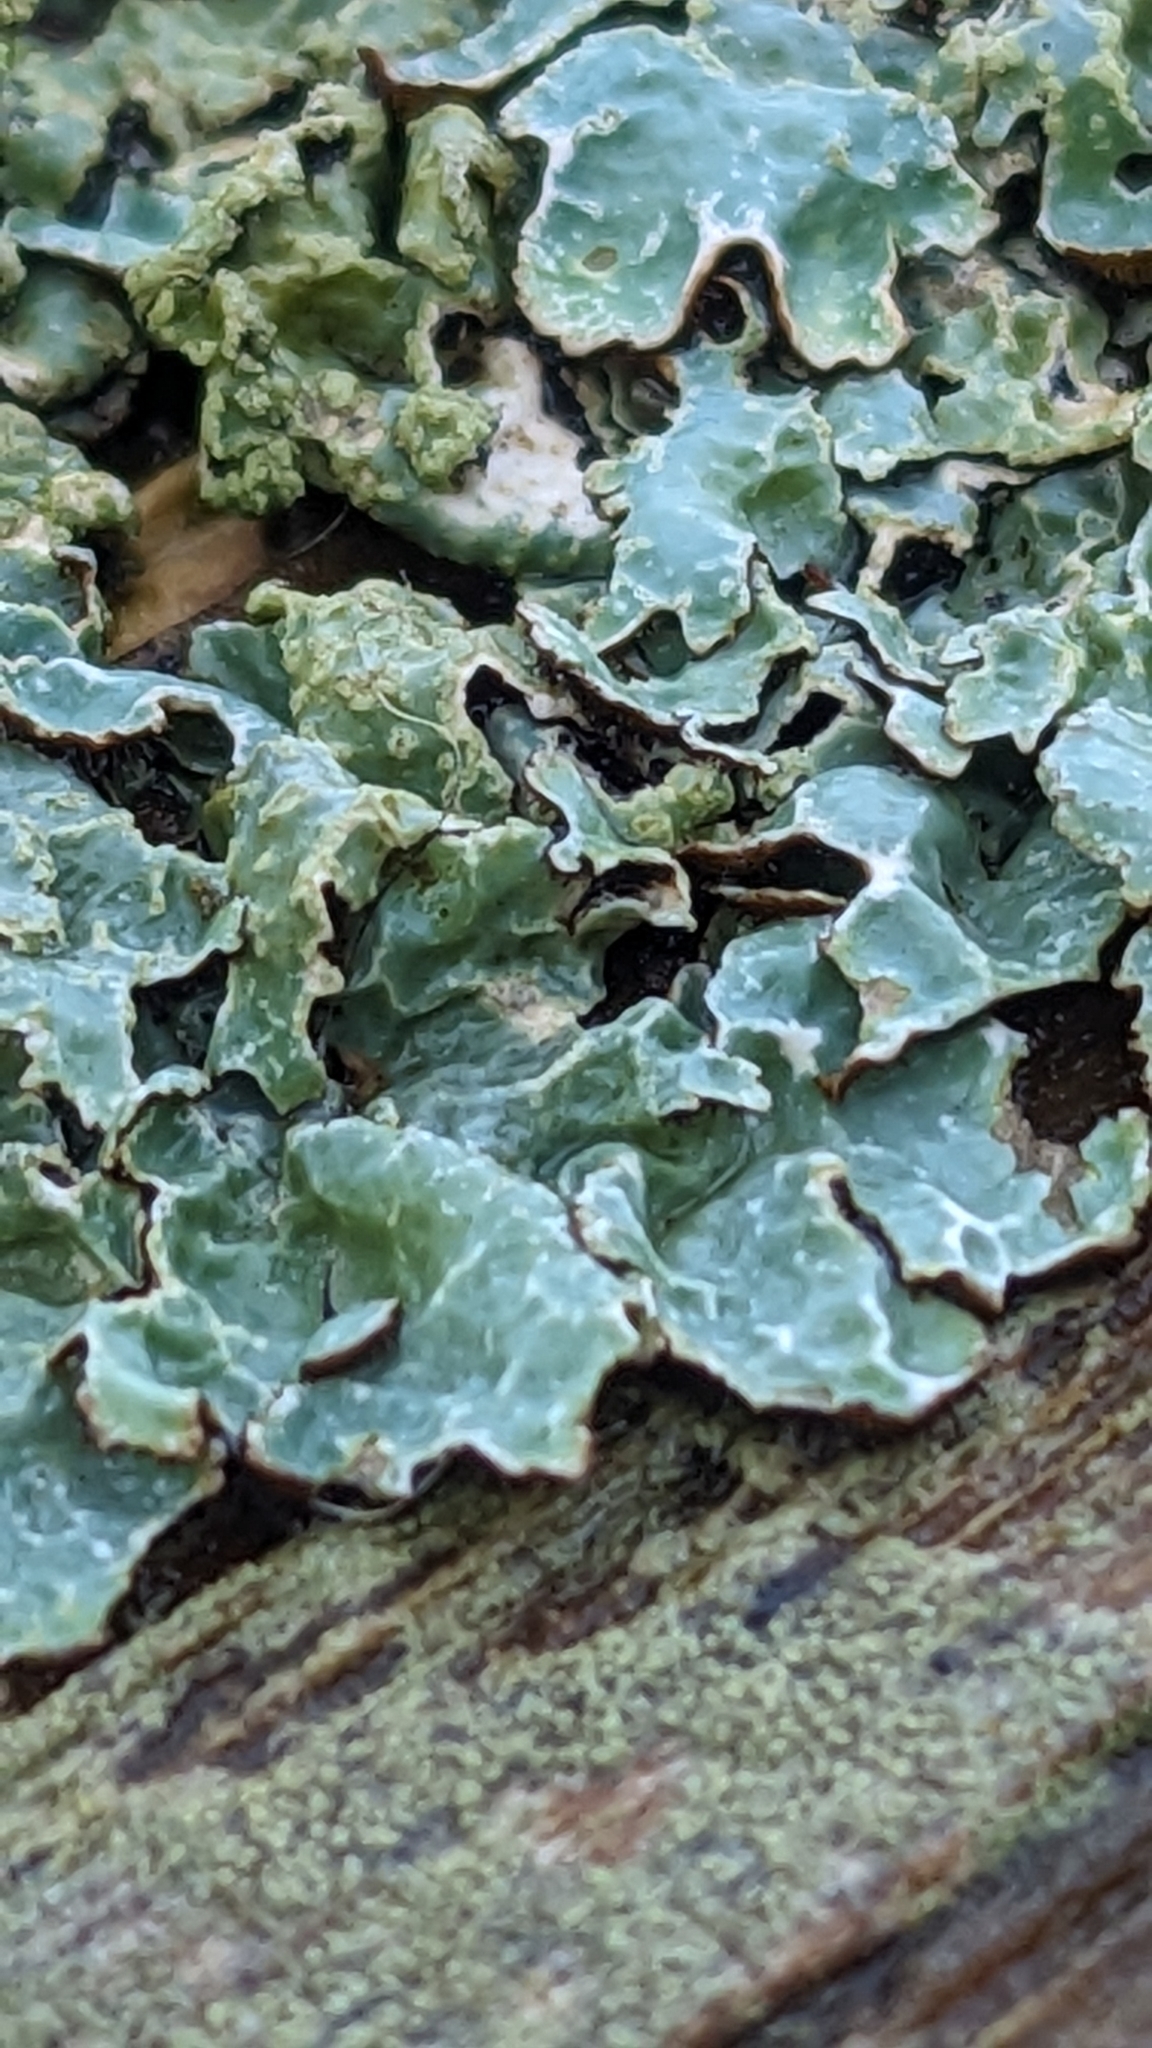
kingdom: Fungi
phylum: Ascomycota
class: Lecanoromycetes
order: Lecanorales
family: Parmeliaceae
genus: Parmelia
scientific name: Parmelia sulcata
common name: Netted shield lichen
